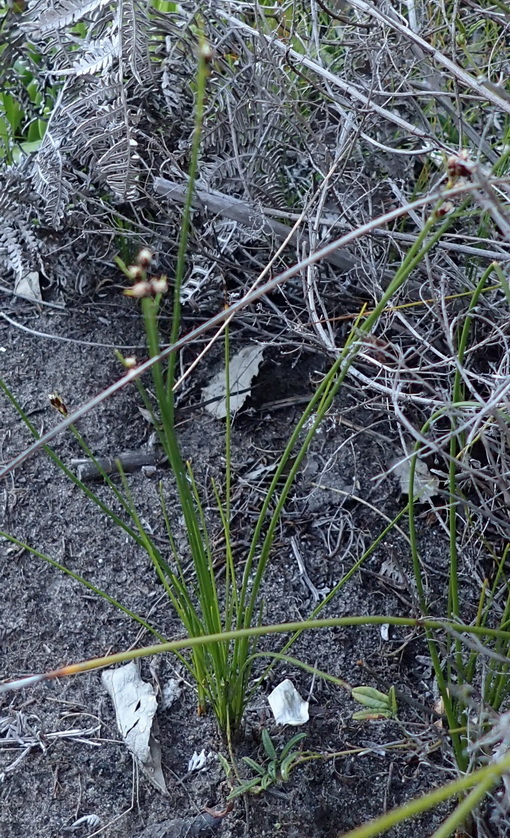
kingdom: Plantae
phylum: Tracheophyta
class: Liliopsida
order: Poales
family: Cyperaceae
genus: Ficinia
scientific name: Ficinia secunda
